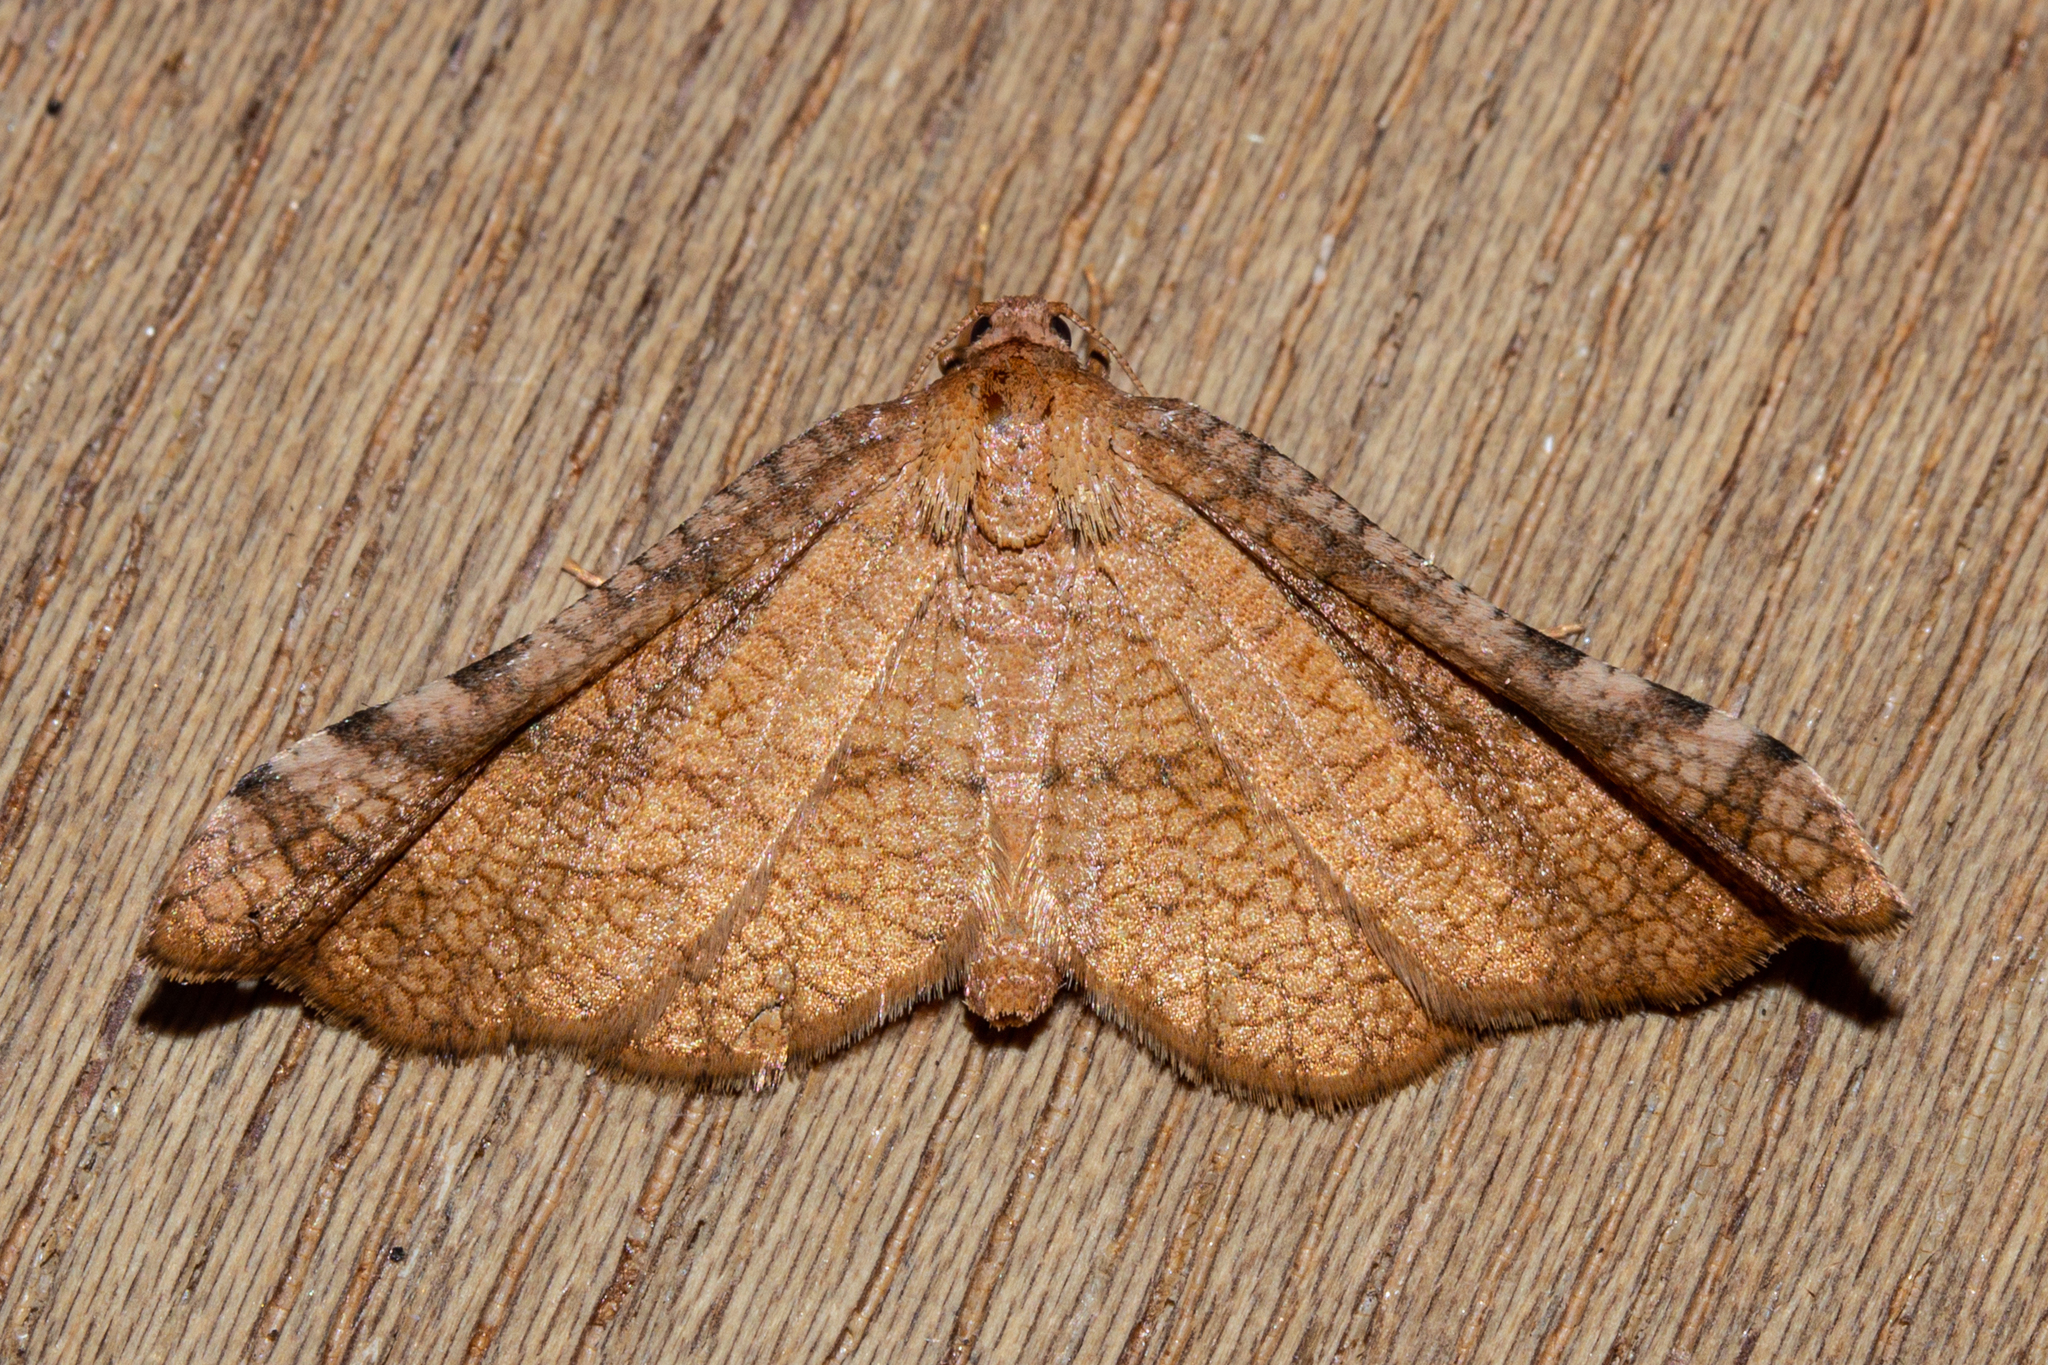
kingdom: Animalia
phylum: Arthropoda
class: Insecta
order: Lepidoptera
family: Thyrididae
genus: Morova
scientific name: Morova subfasciata
